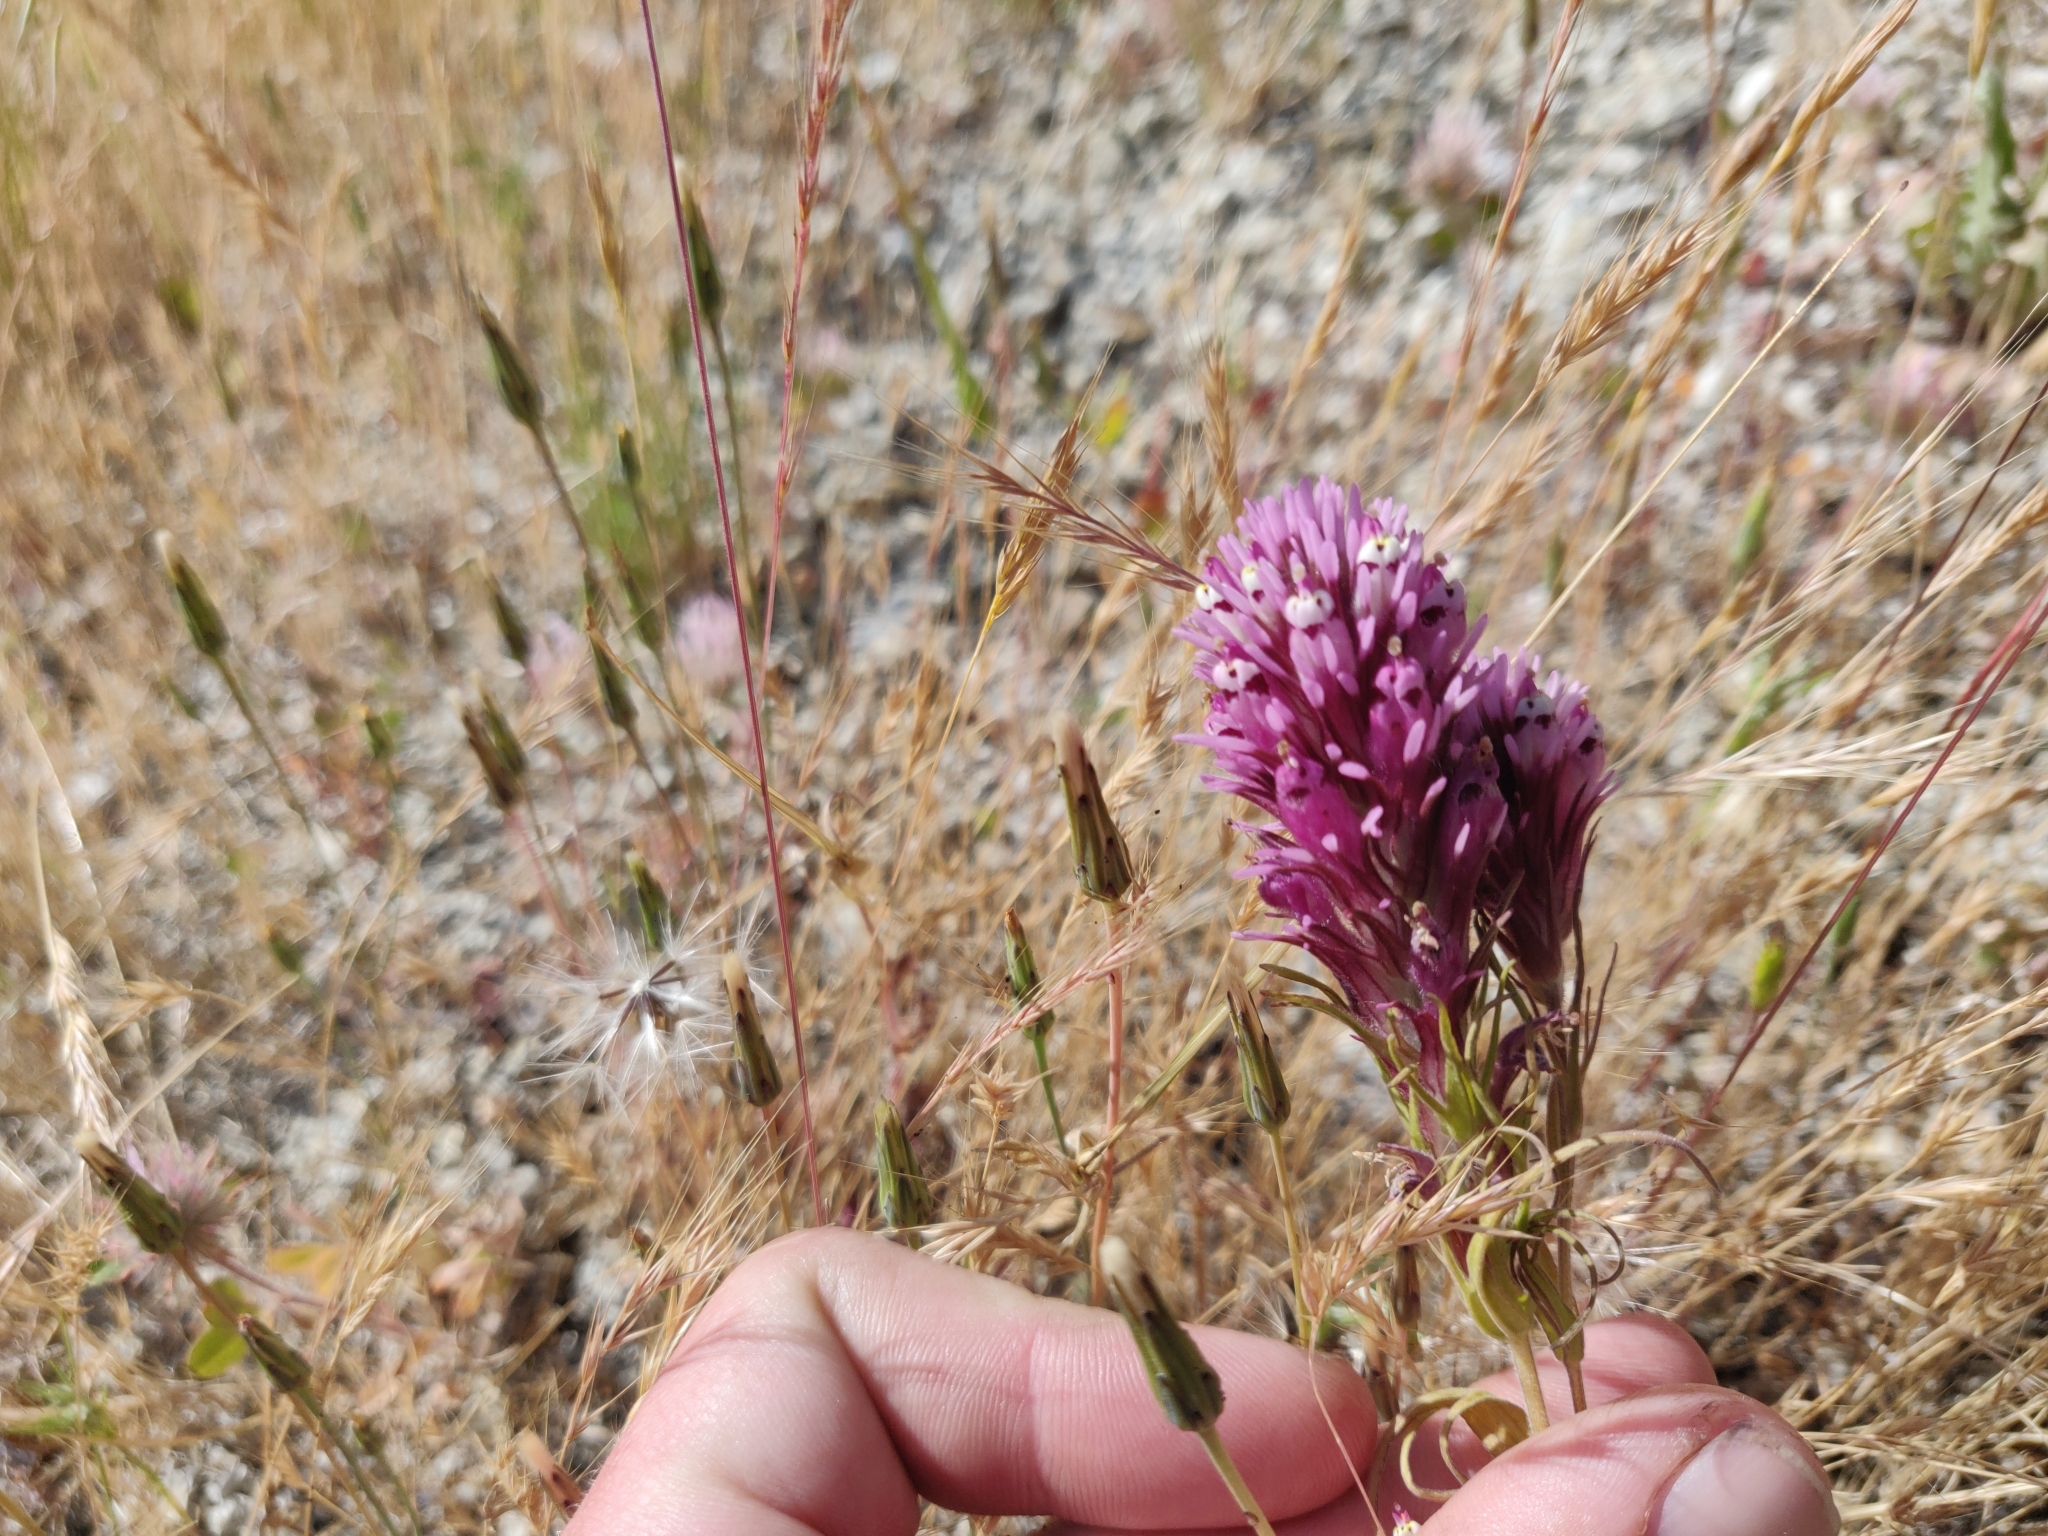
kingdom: Plantae
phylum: Tracheophyta
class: Magnoliopsida
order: Lamiales
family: Orobanchaceae
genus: Castilleja
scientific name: Castilleja densiflora
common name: Dense-flower indian paintbrush
